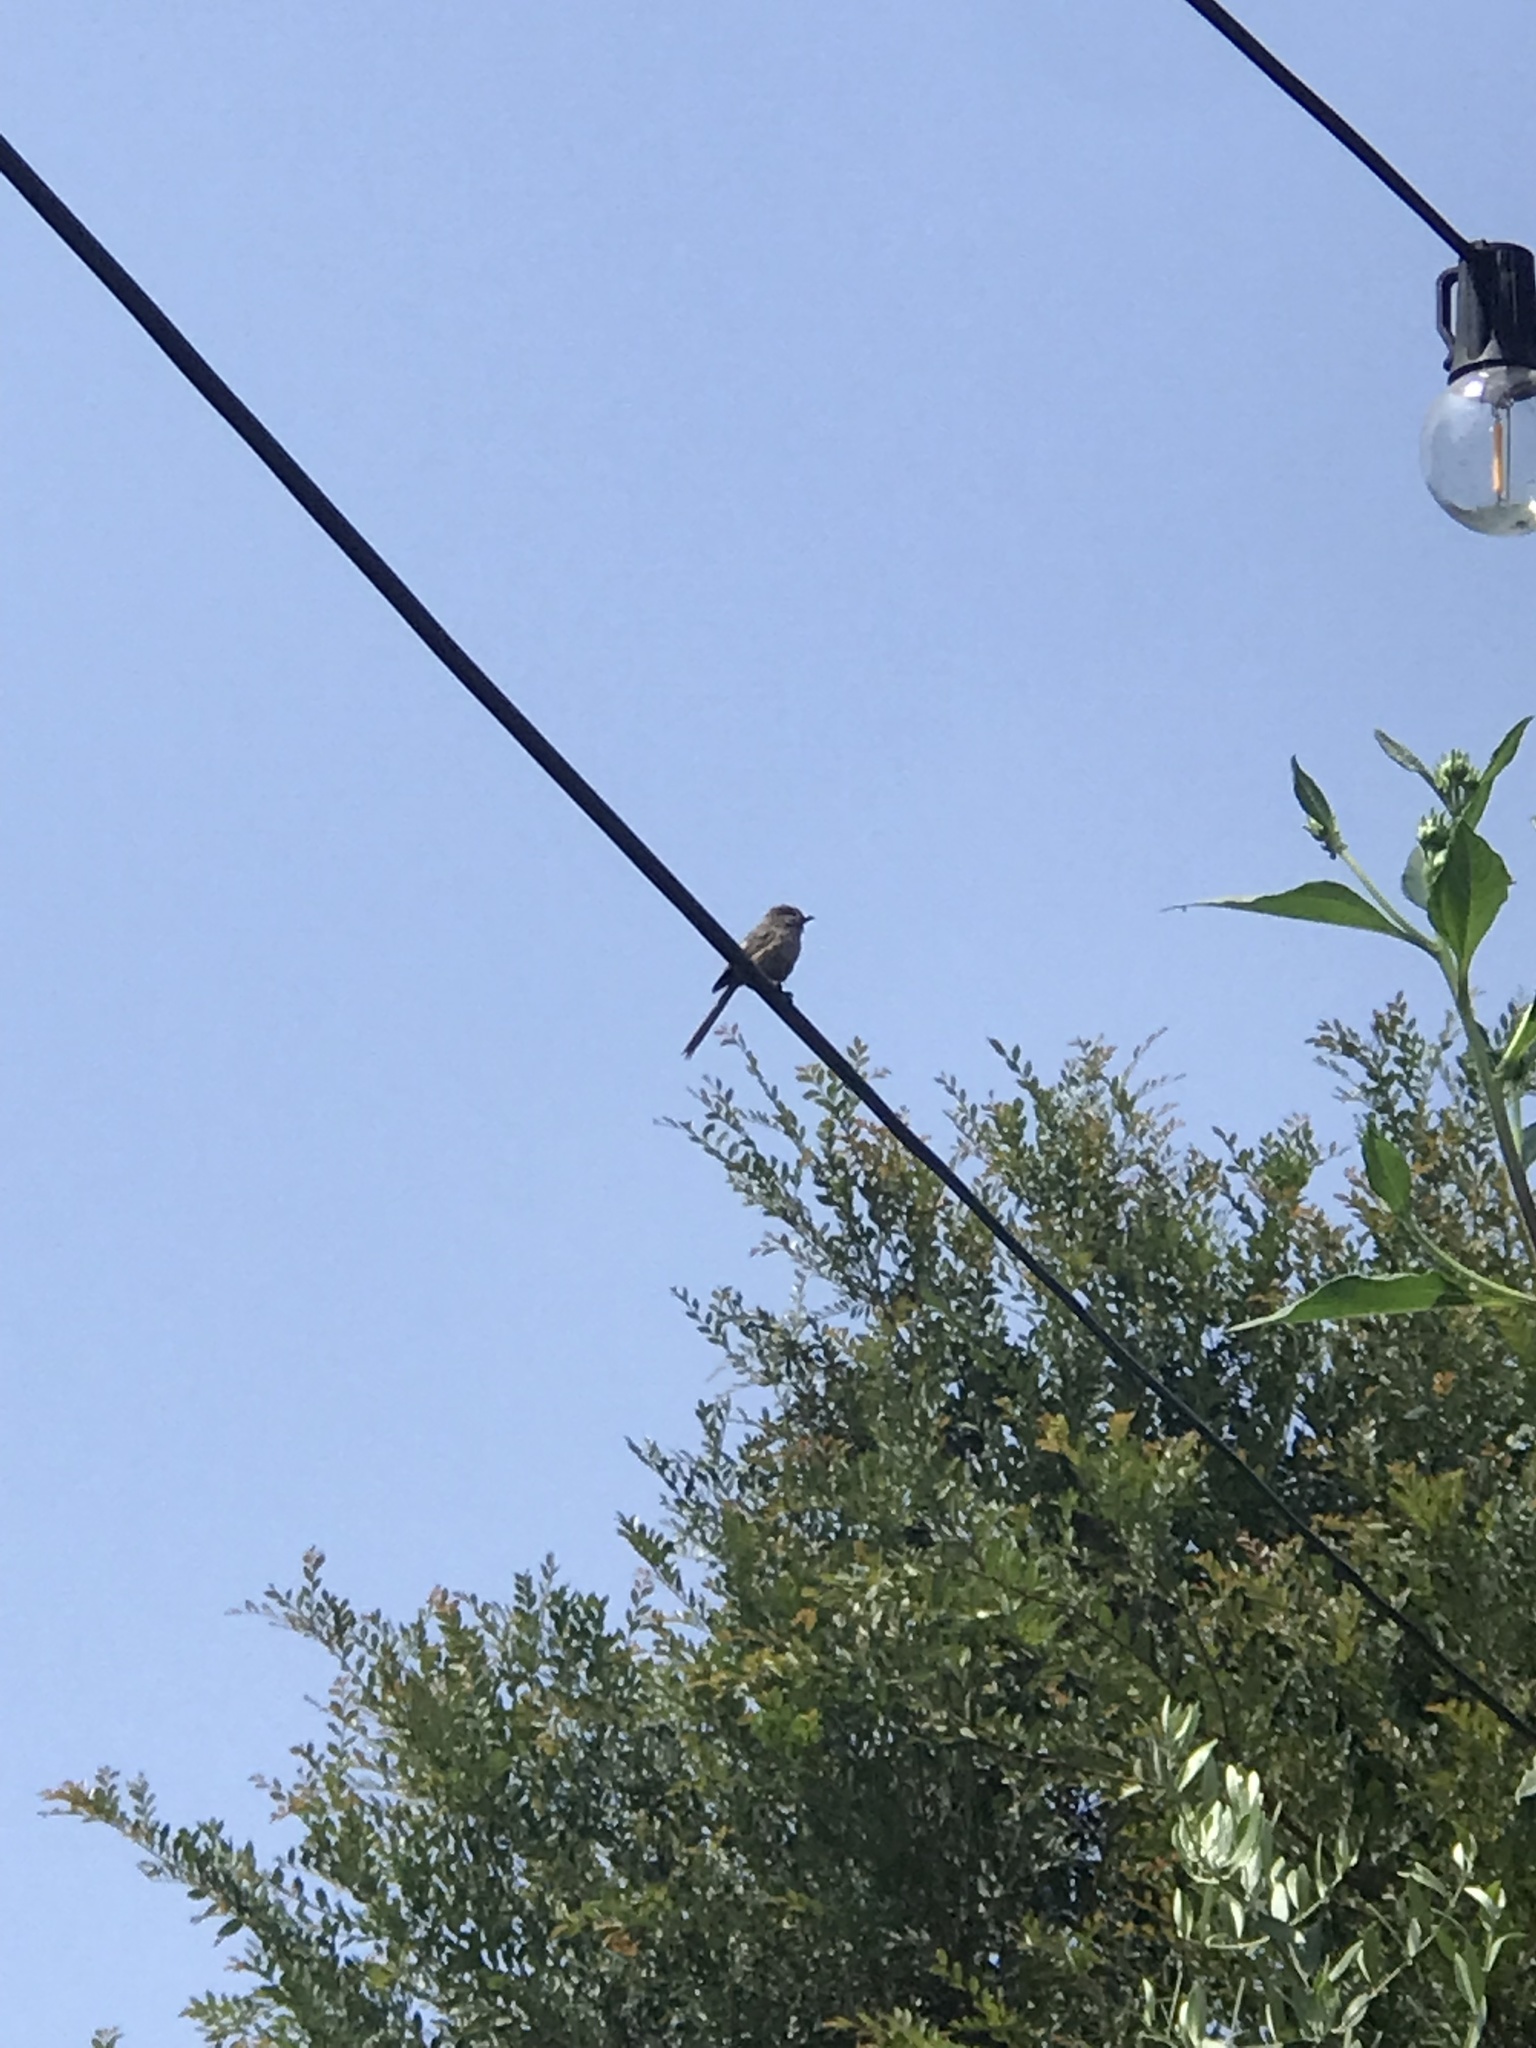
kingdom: Animalia
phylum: Chordata
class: Aves
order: Passeriformes
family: Aegithalidae
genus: Psaltriparus
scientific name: Psaltriparus minimus
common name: American bushtit
